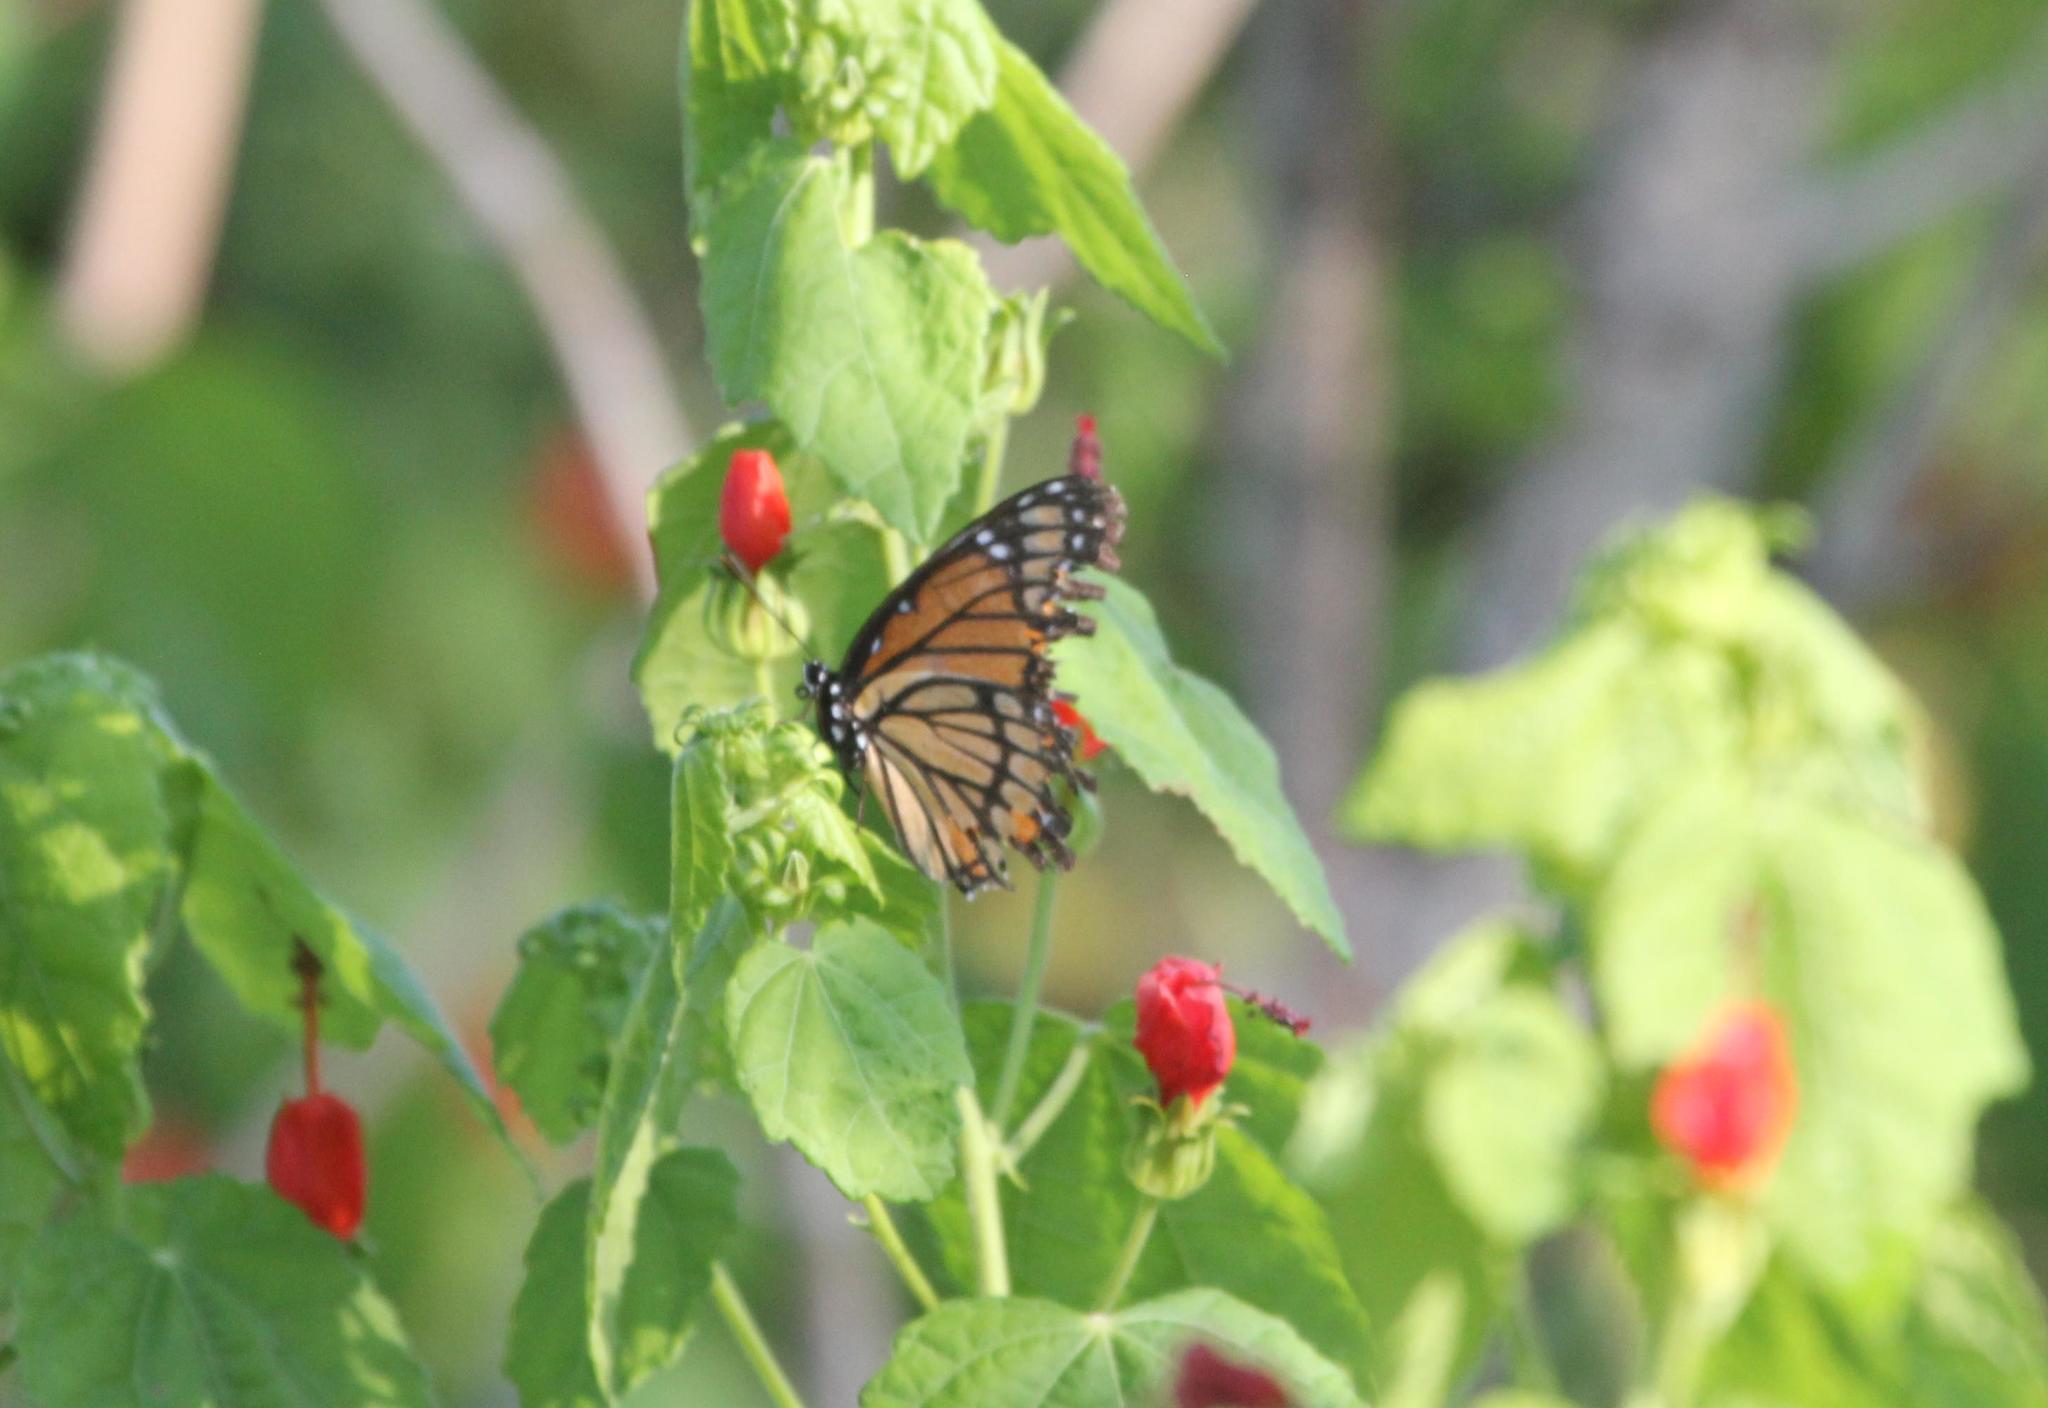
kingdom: Animalia
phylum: Arthropoda
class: Insecta
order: Lepidoptera
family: Nymphalidae
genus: Limenitis
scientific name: Limenitis archippus
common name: Viceroy
